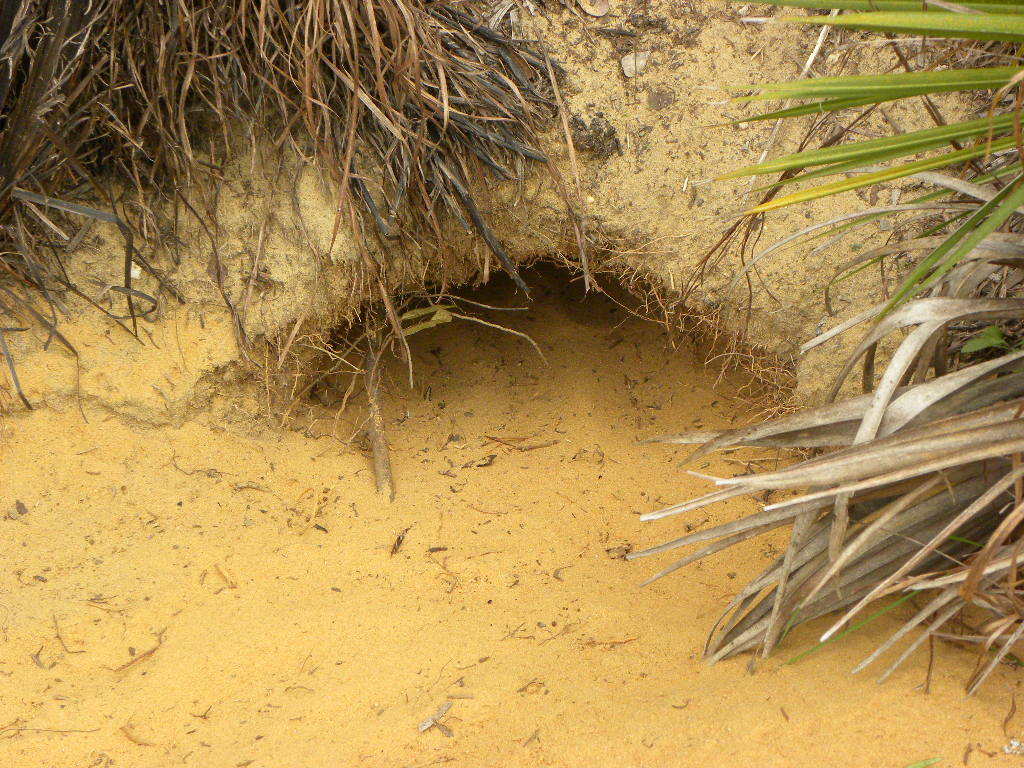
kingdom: Animalia
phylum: Chordata
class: Testudines
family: Testudinidae
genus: Gopherus
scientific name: Gopherus polyphemus
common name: Florida gopher tortoise
